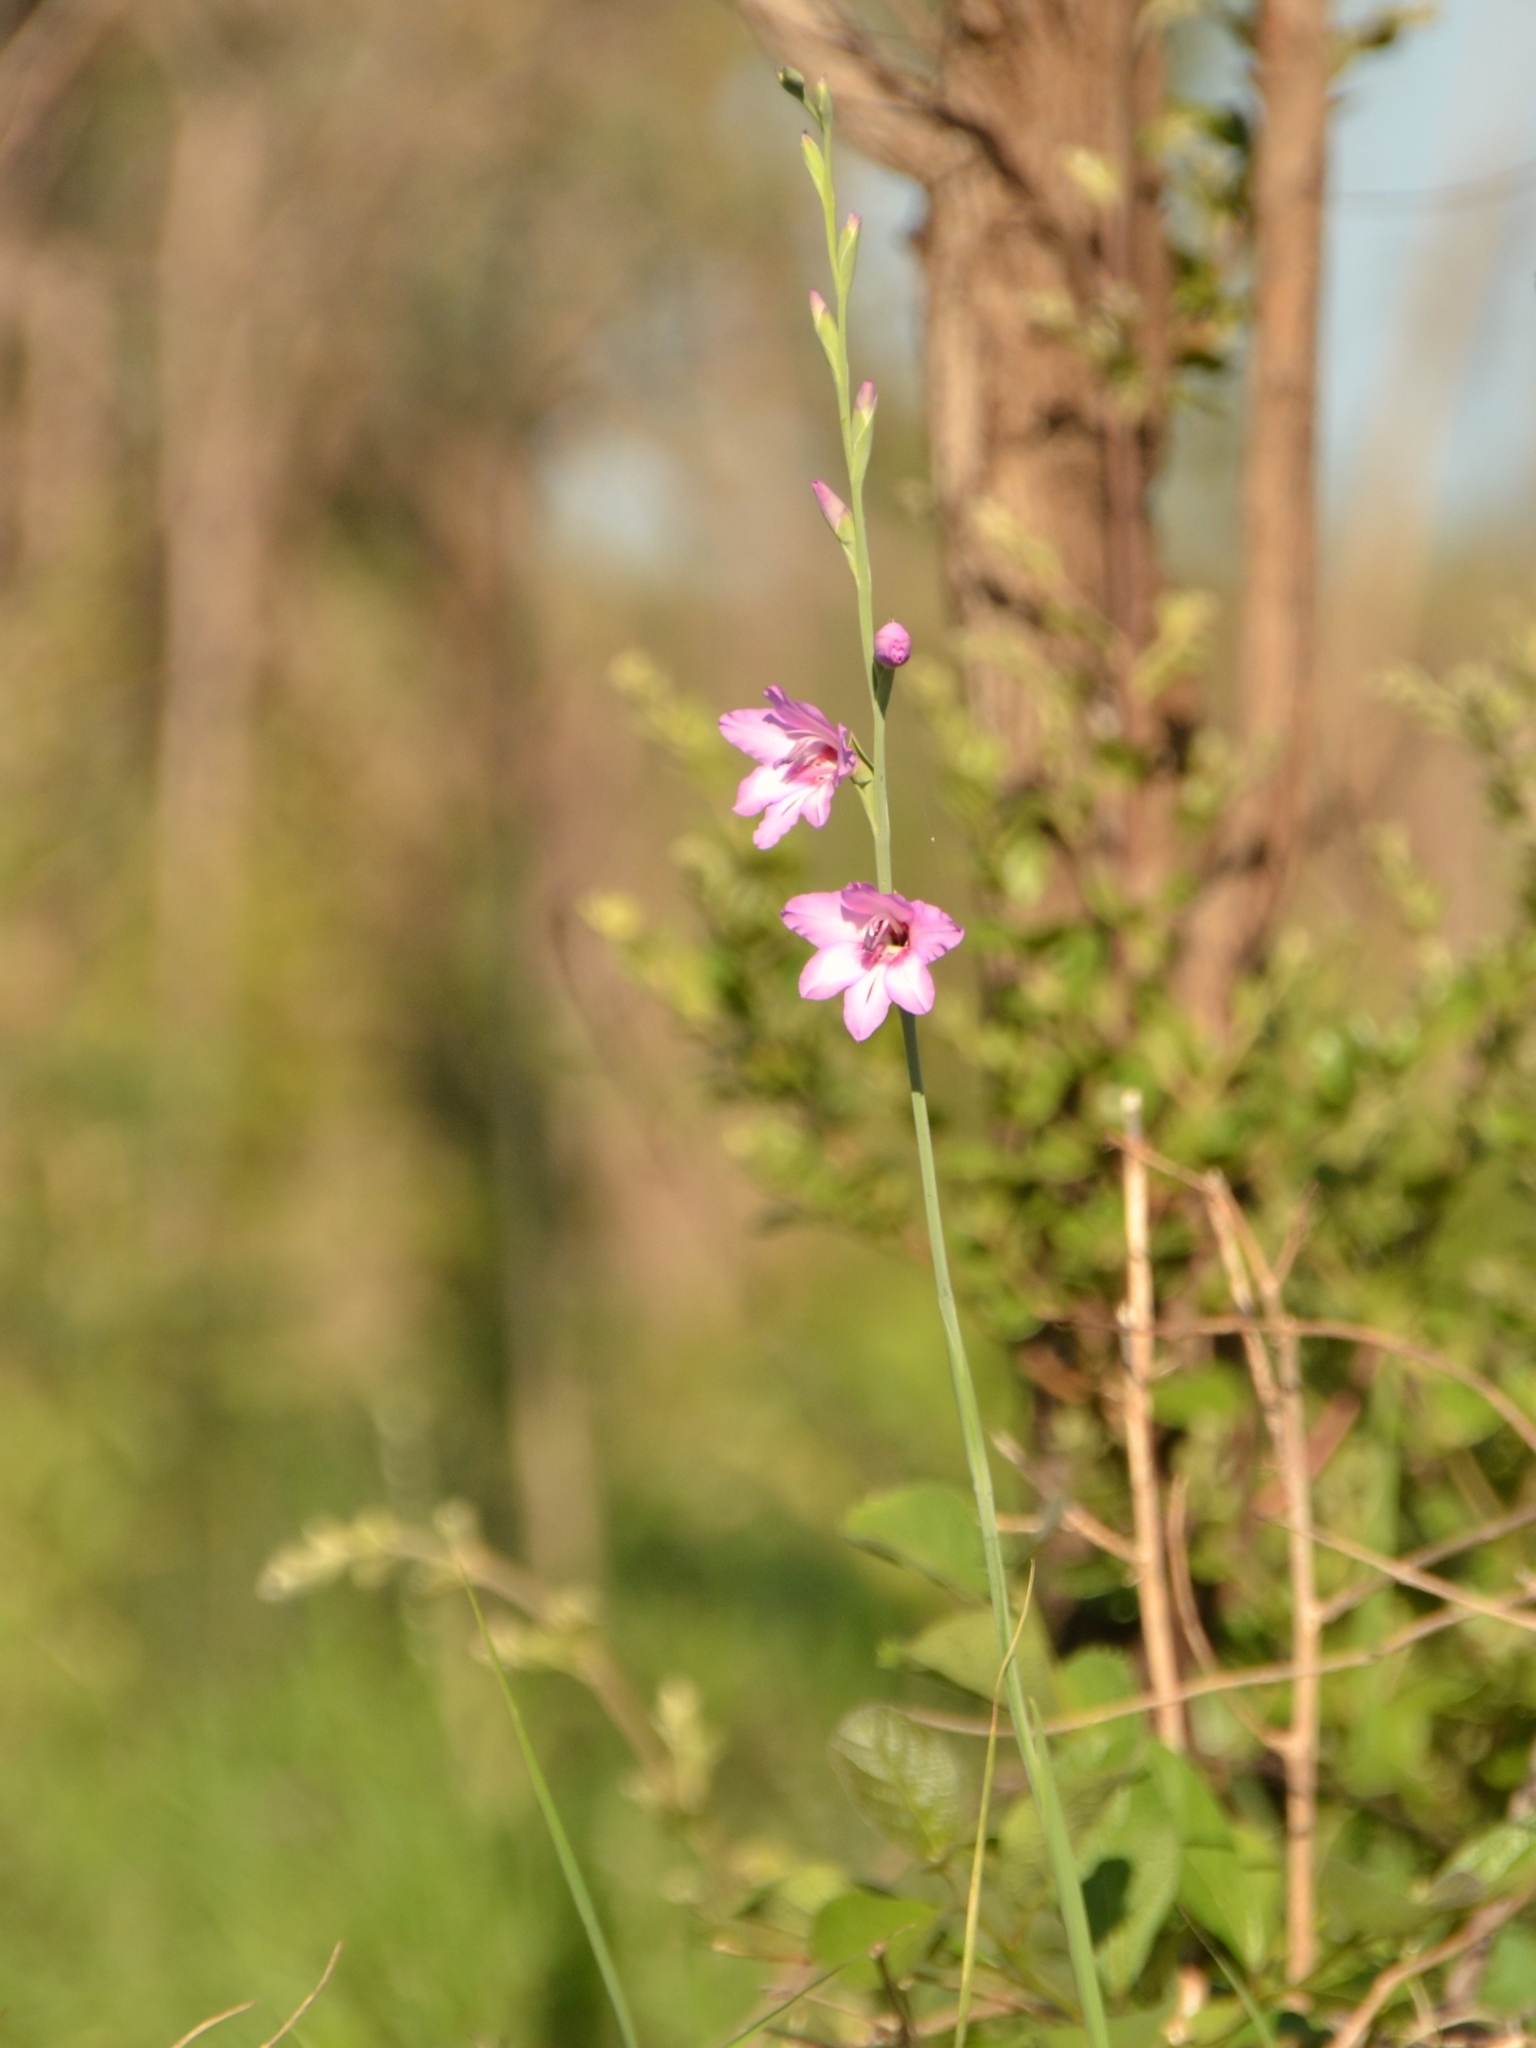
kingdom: Plantae
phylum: Tracheophyta
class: Liliopsida
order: Asparagales
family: Iridaceae
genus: Gladiolus
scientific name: Gladiolus brachyphyllus
